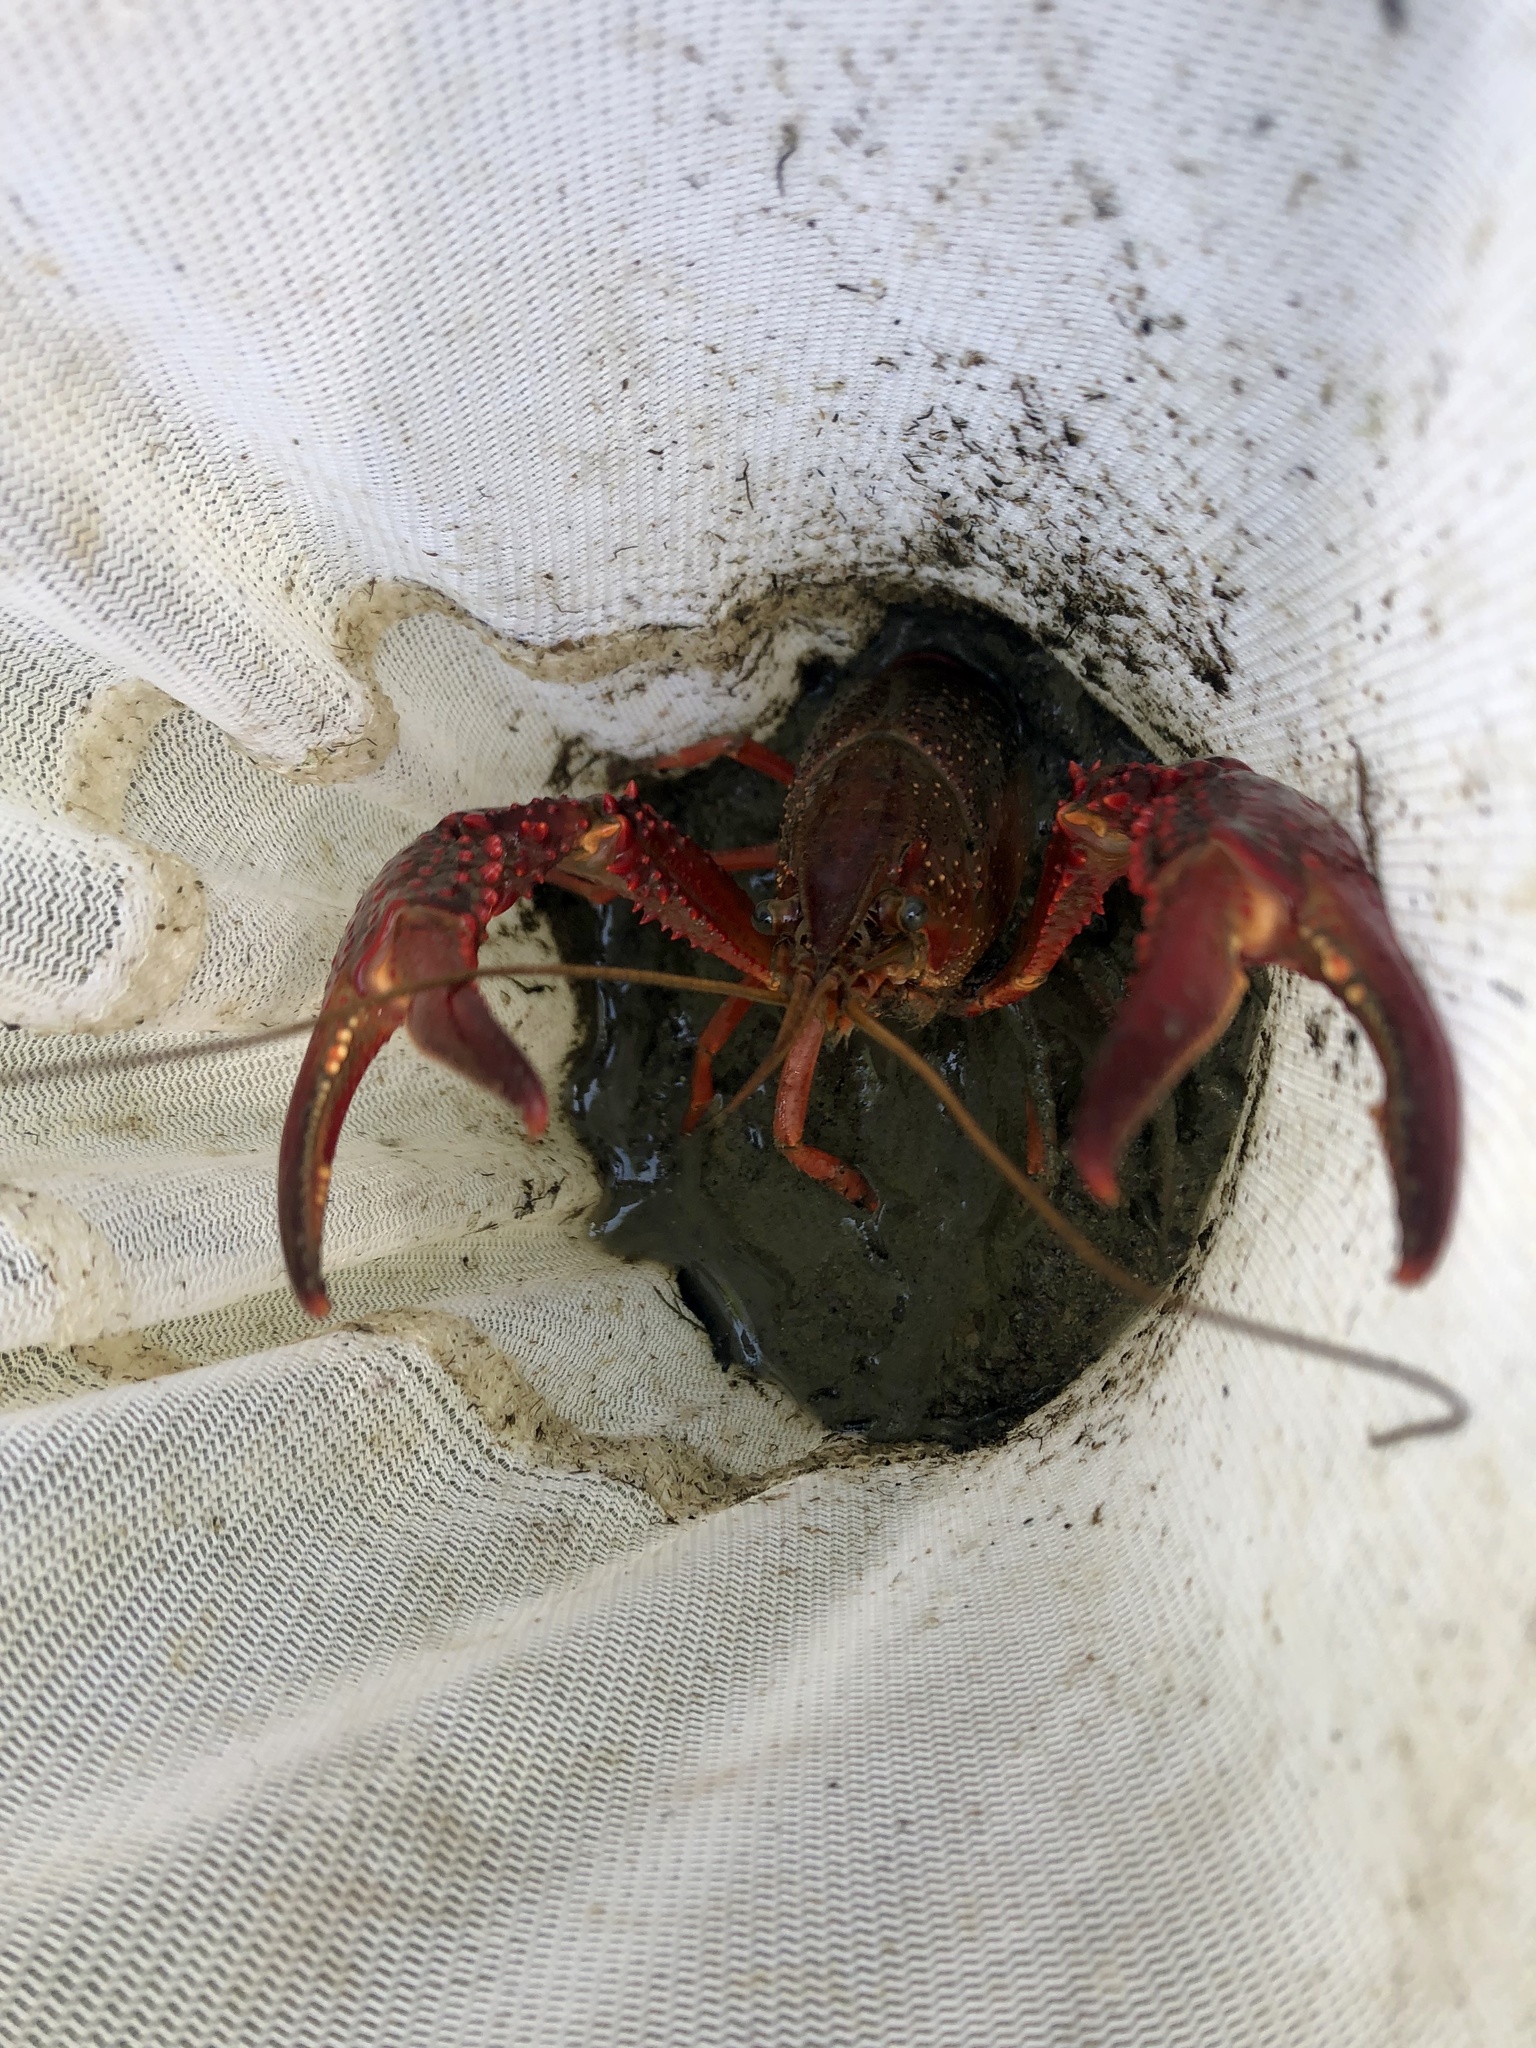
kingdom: Animalia
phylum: Arthropoda
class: Malacostraca
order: Decapoda
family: Cambaridae
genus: Procambarus
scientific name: Procambarus clarkii
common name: Red swamp crayfish
